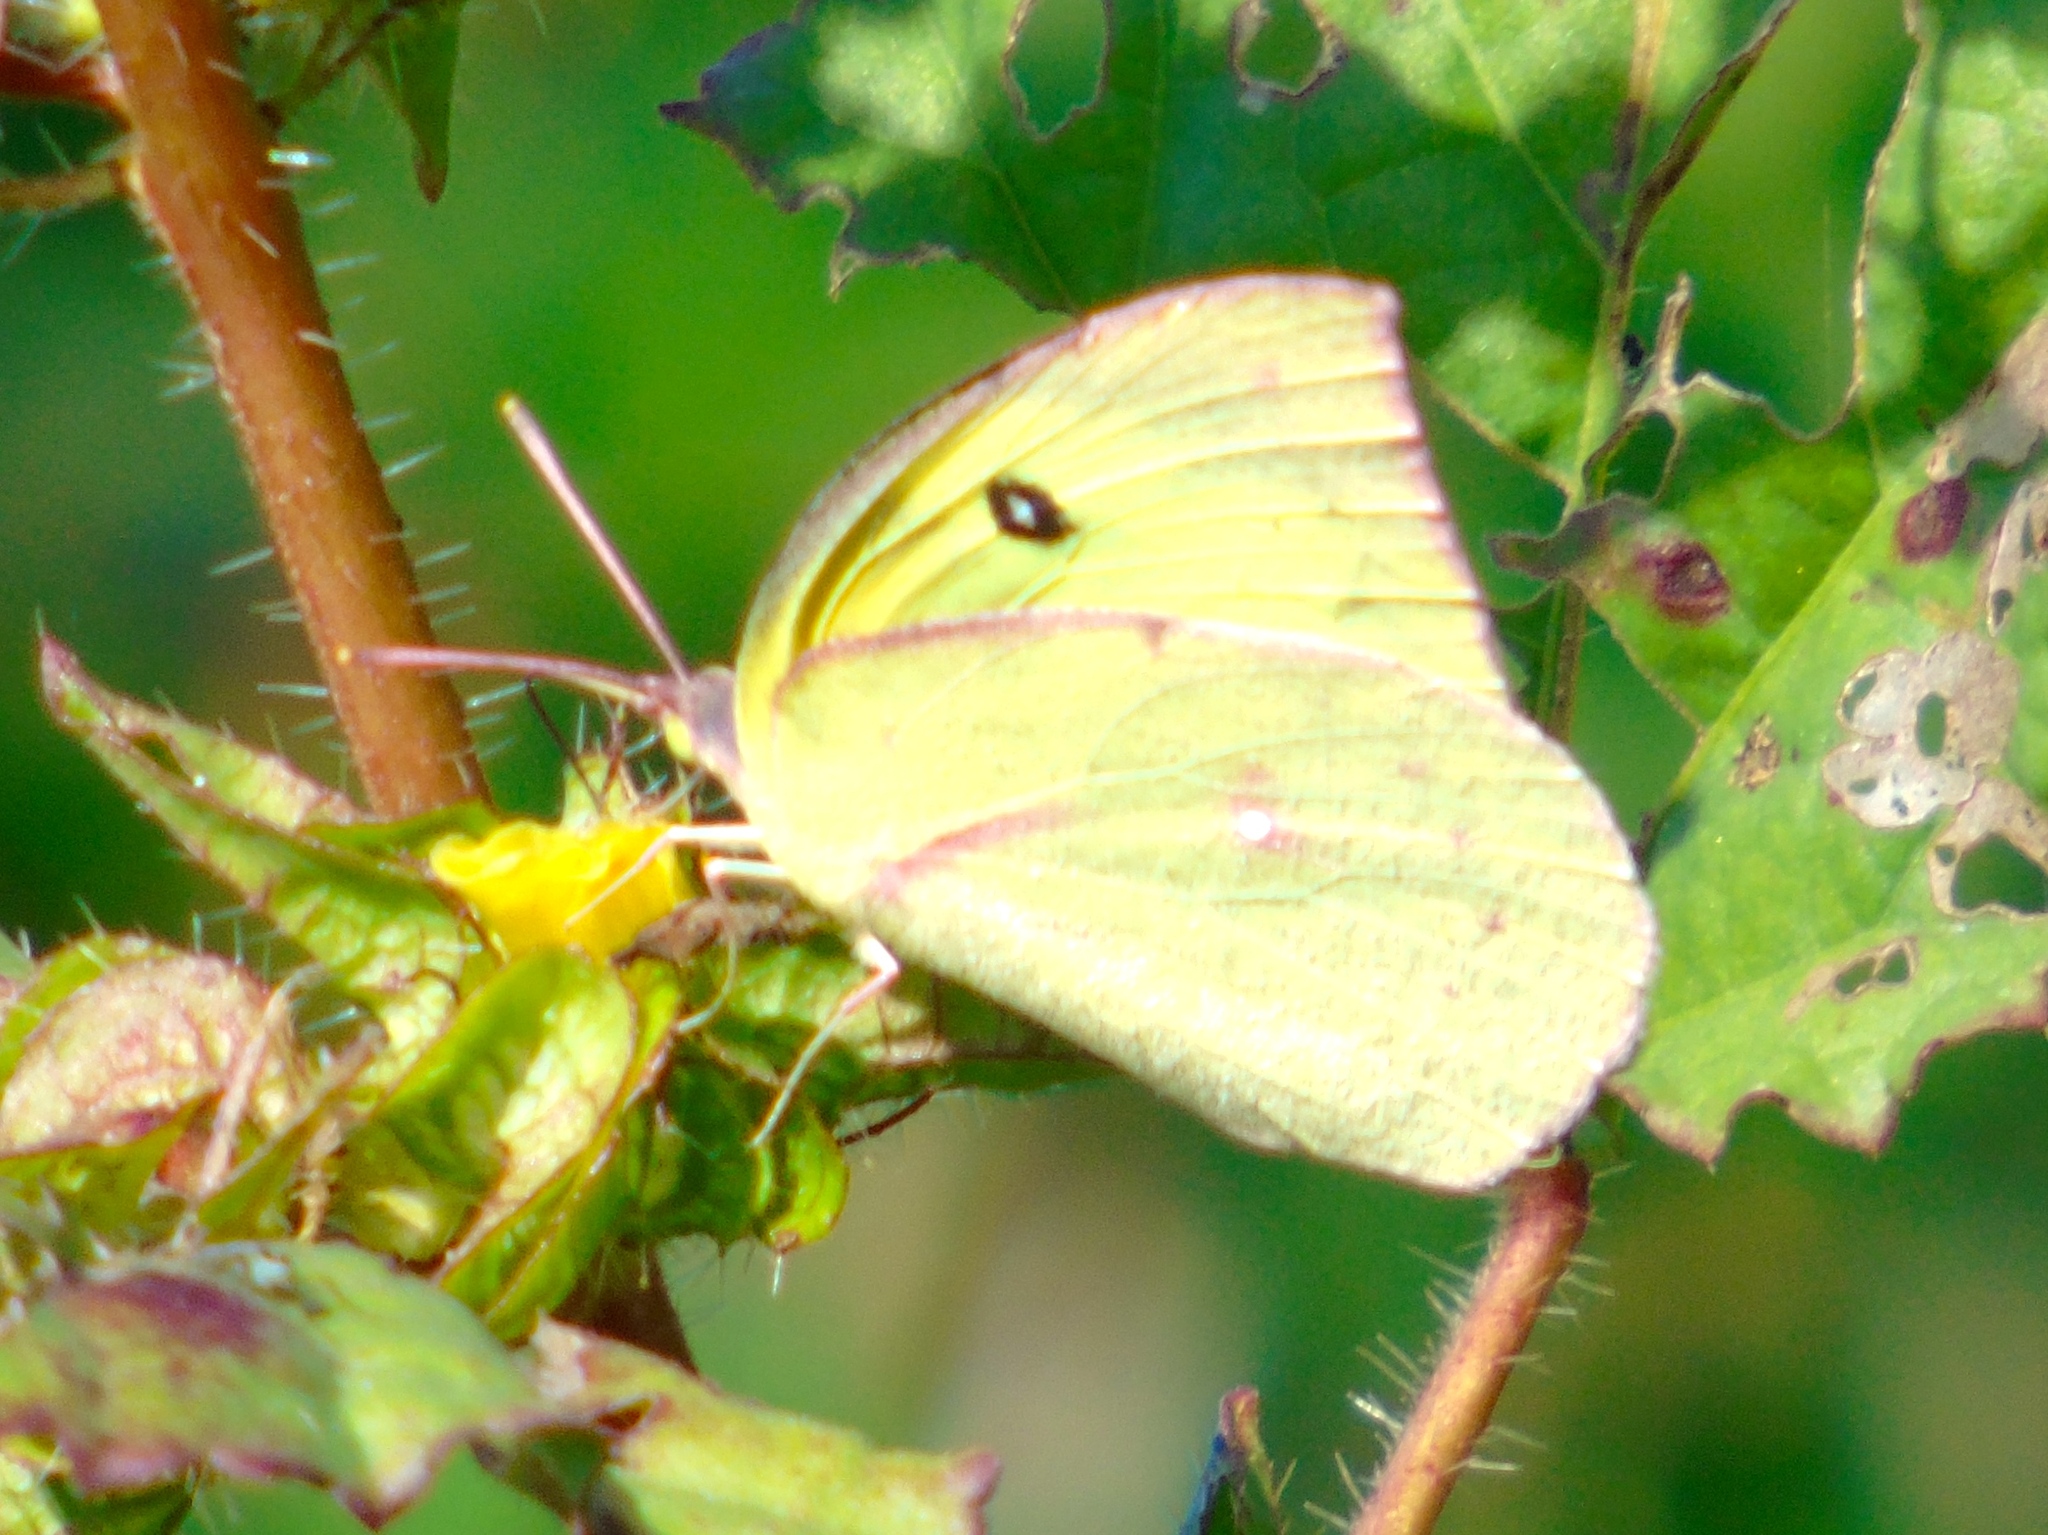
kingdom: Animalia
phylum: Arthropoda
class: Insecta
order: Lepidoptera
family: Pieridae
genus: Zerene
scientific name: Zerene cesonia
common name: Southern dogface
